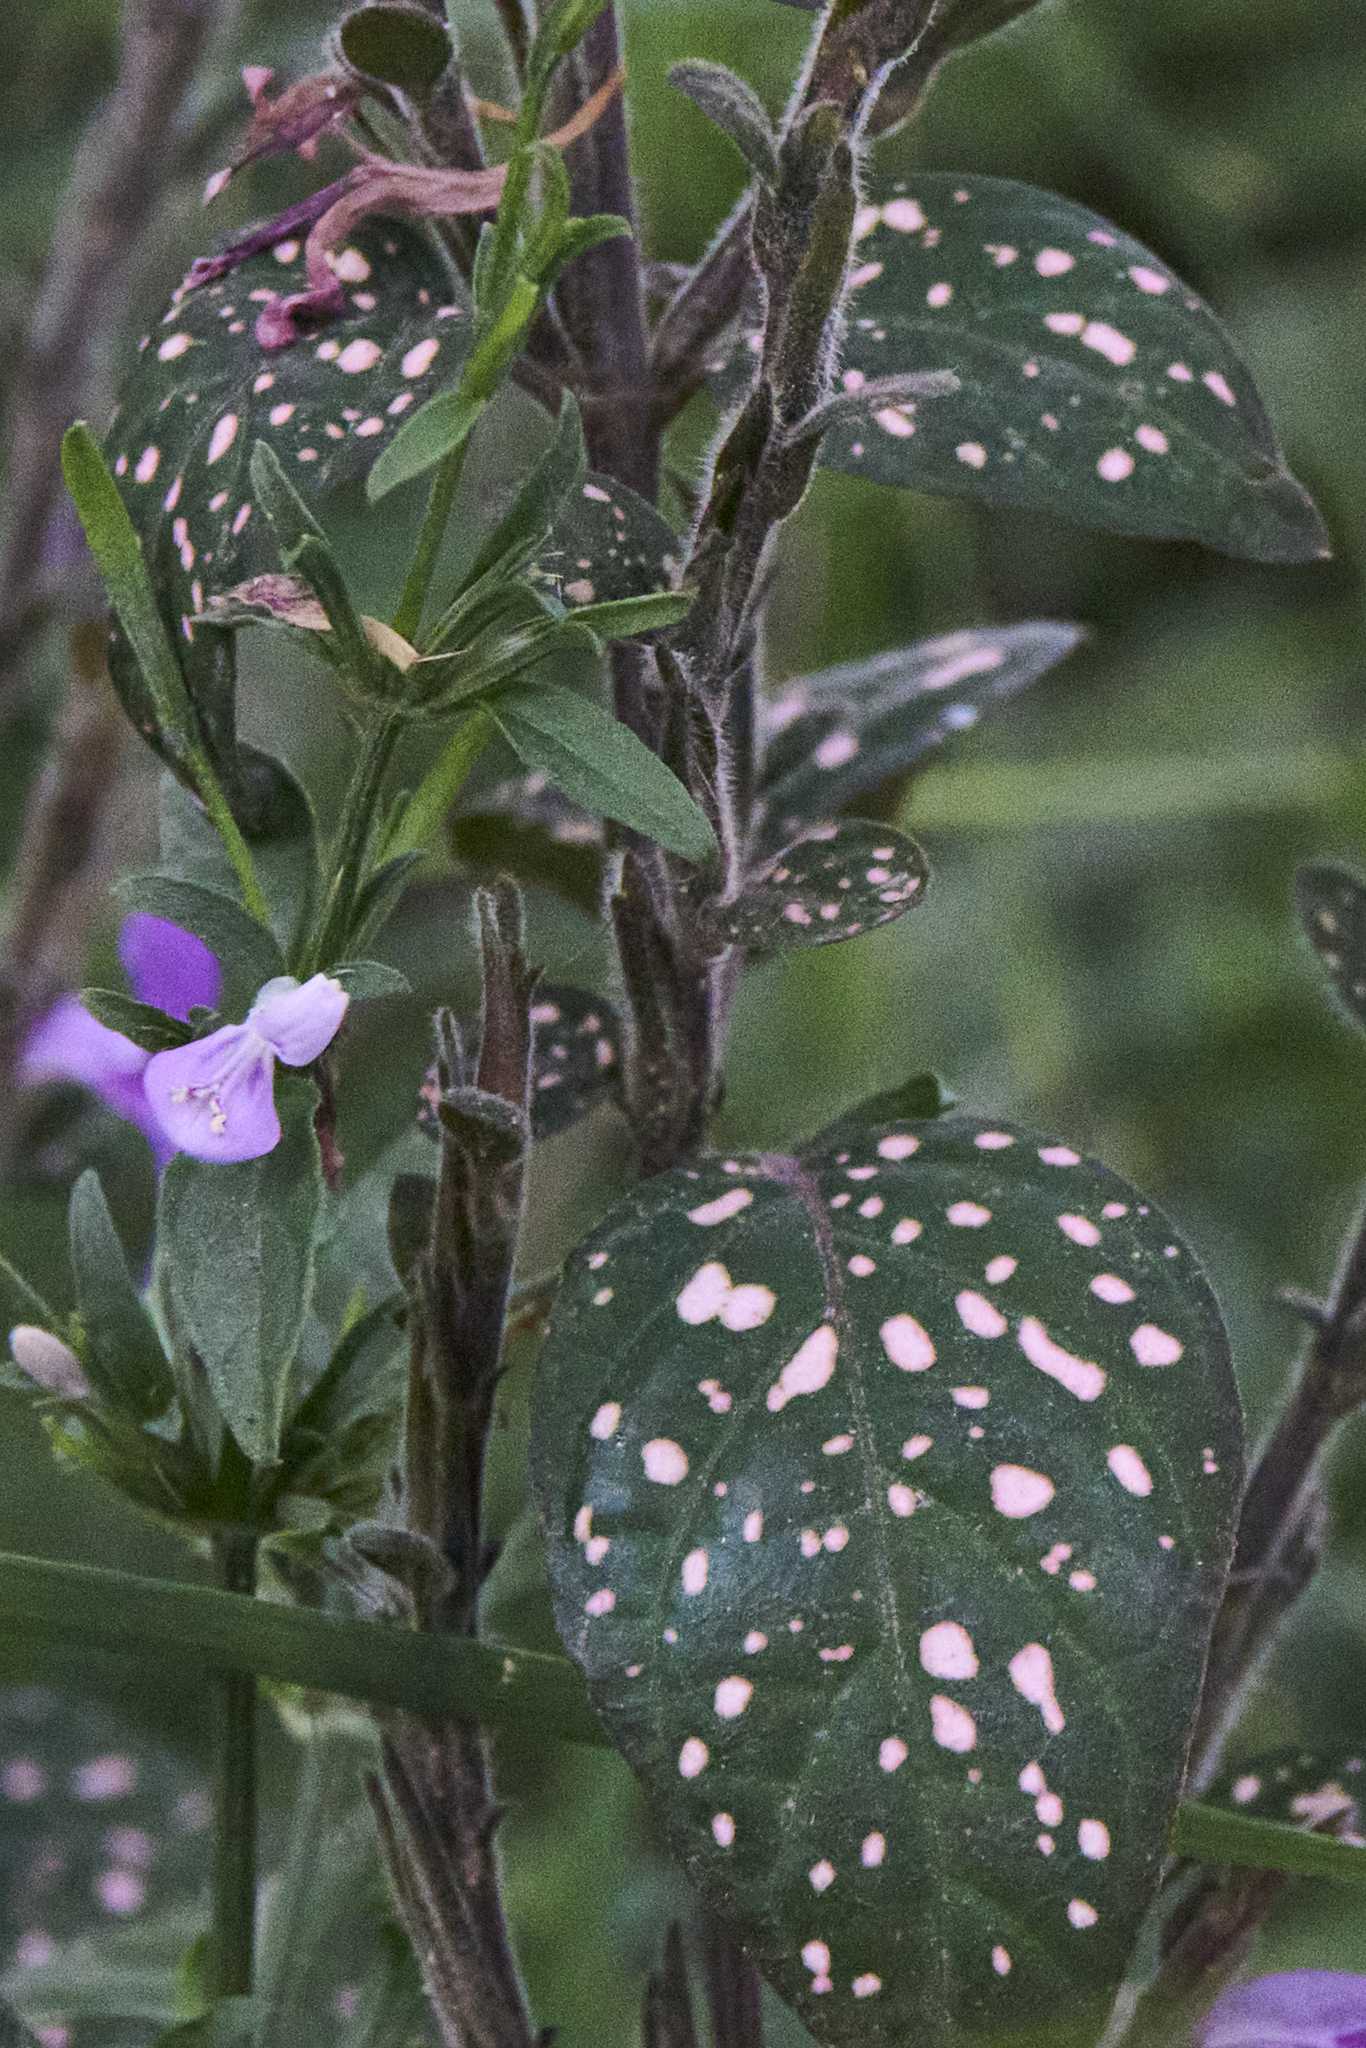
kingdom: Plantae
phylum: Tracheophyta
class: Magnoliopsida
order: Lamiales
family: Acanthaceae
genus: Hypoestes
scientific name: Hypoestes phyllostachya
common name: Polkadot-plant
